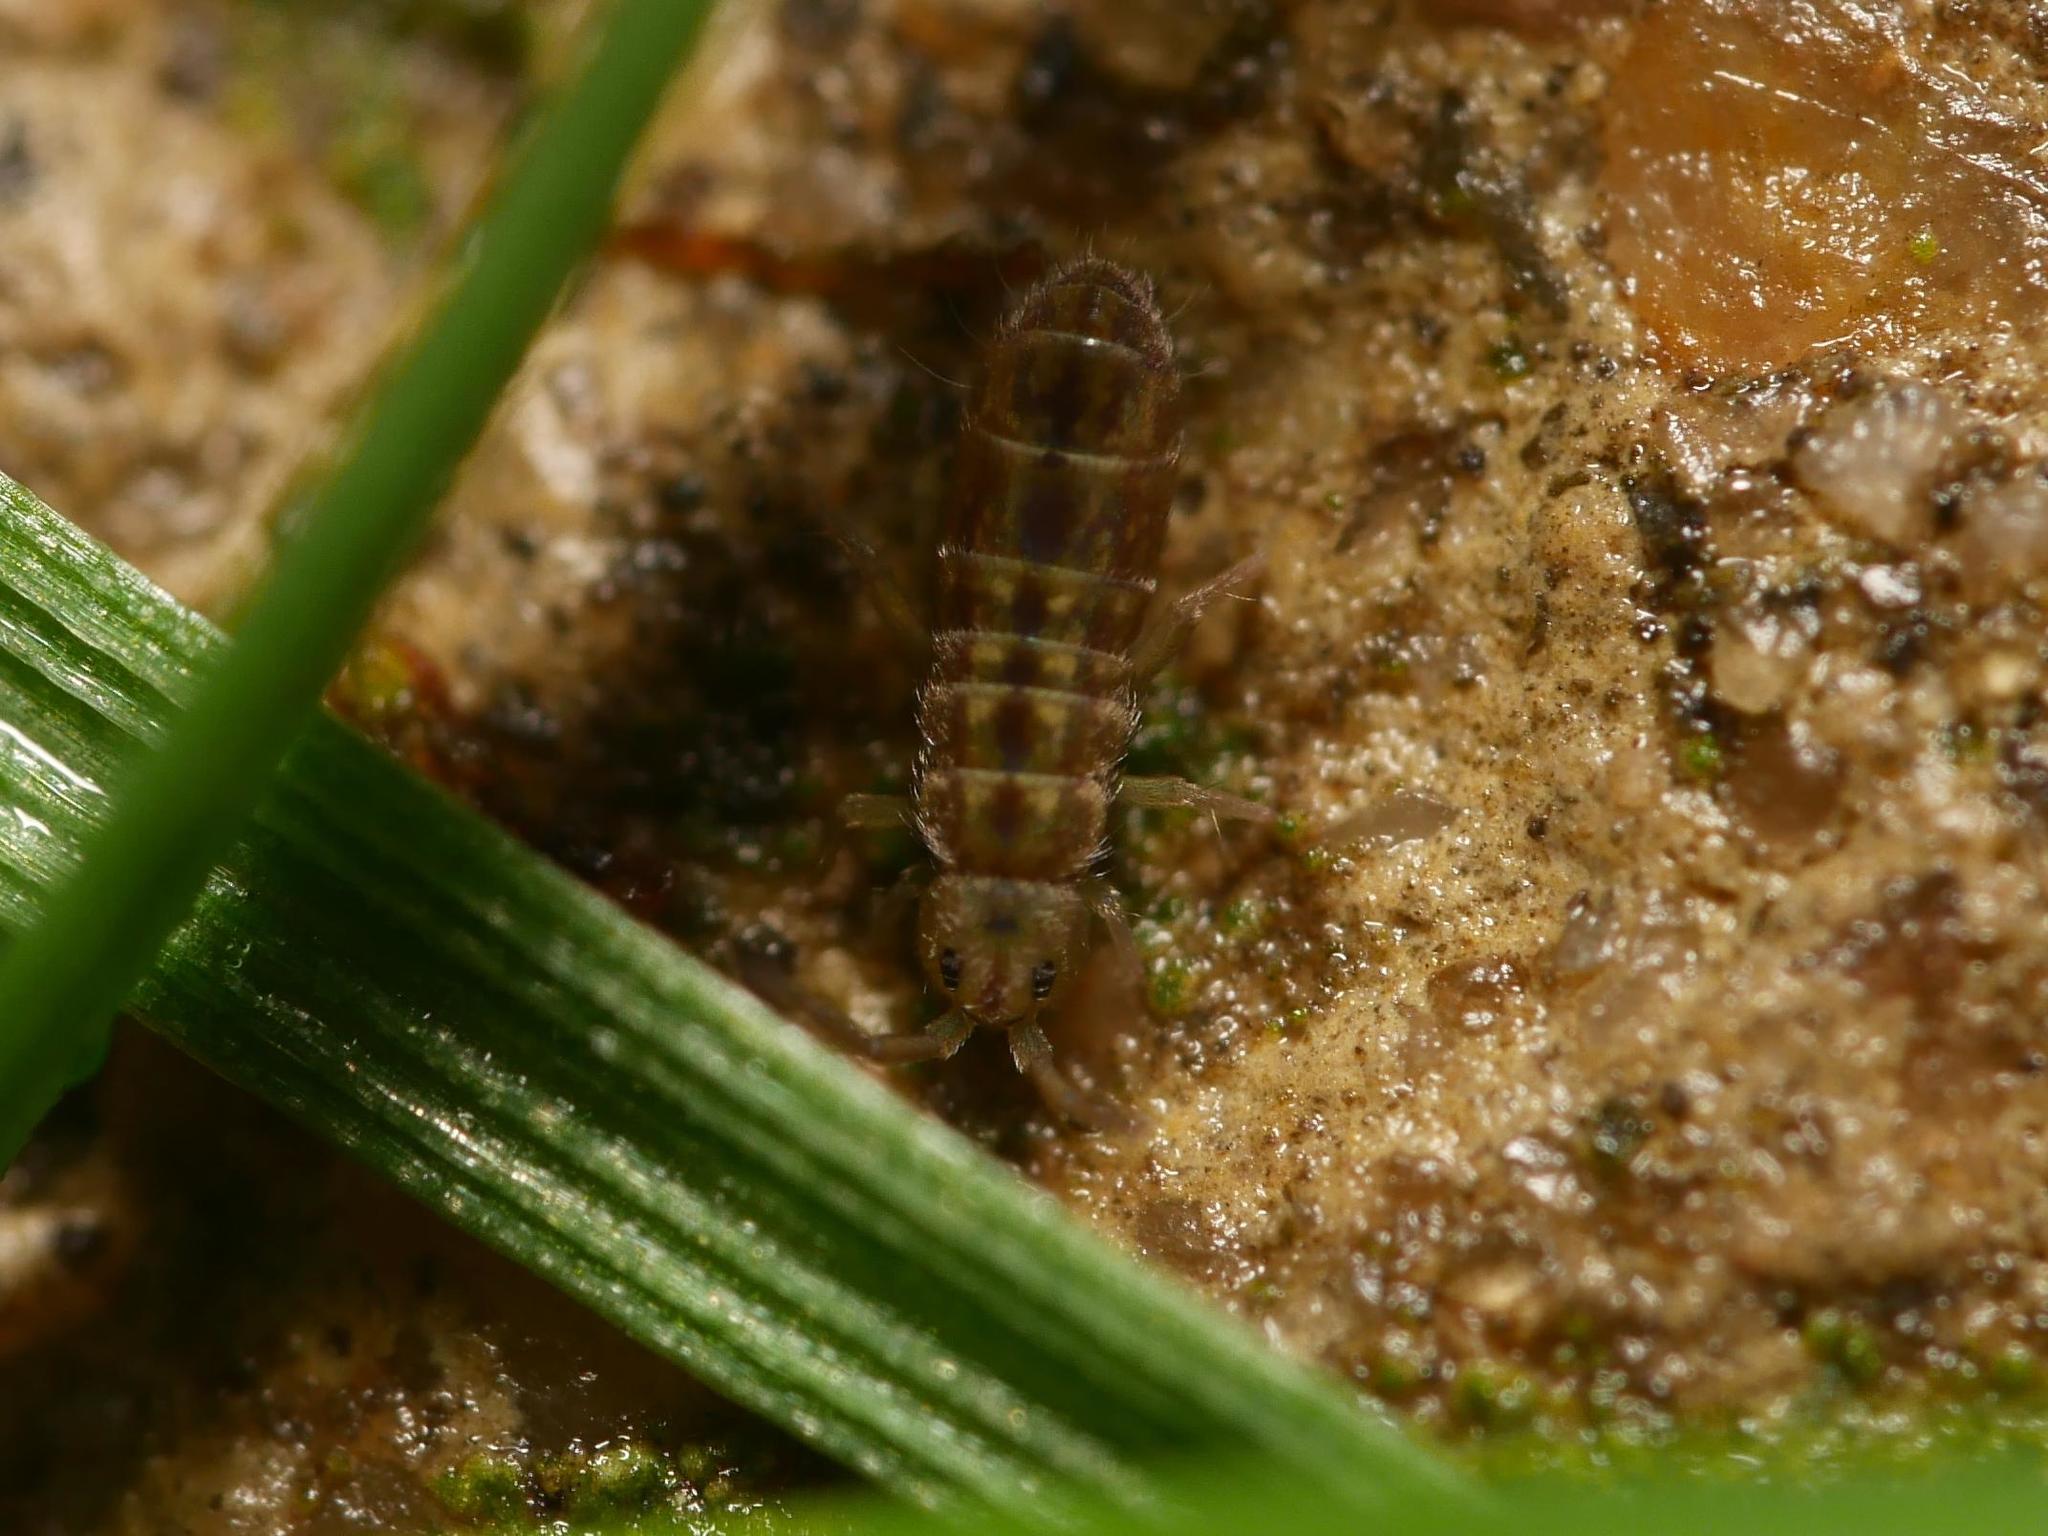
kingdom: Animalia
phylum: Arthropoda
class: Collembola
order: Entomobryomorpha
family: Isotomidae
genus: Isotomurus
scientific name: Isotomurus pseudopalustris
